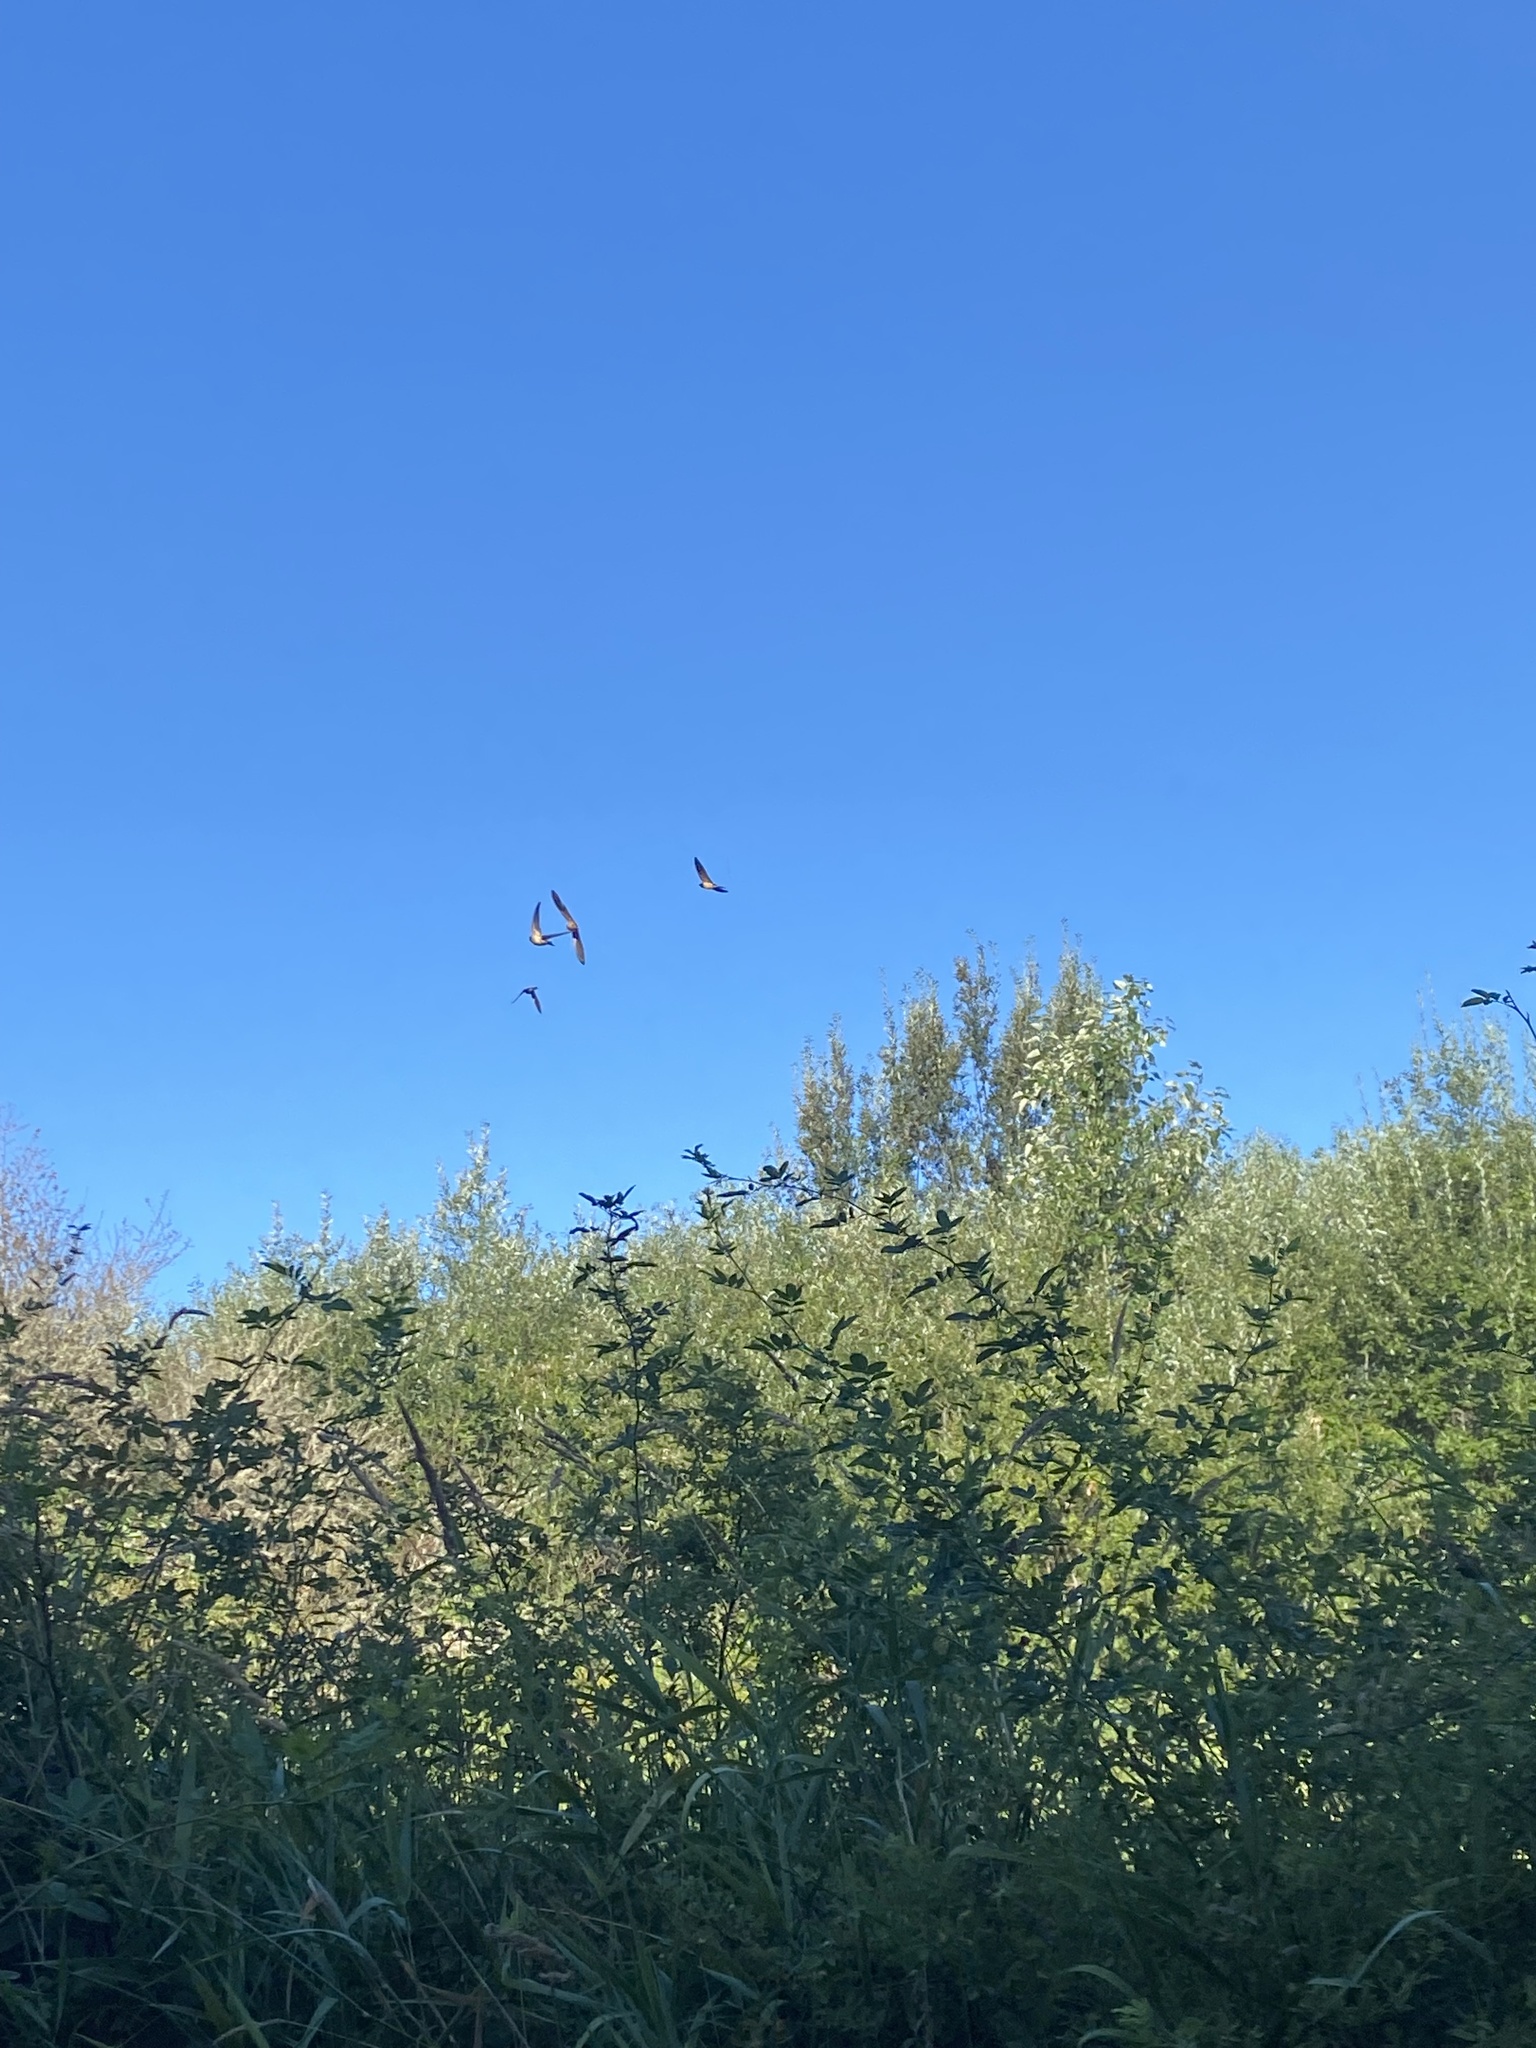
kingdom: Animalia
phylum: Chordata
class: Aves
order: Passeriformes
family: Hirundinidae
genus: Hirundo
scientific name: Hirundo rustica
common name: Barn swallow
